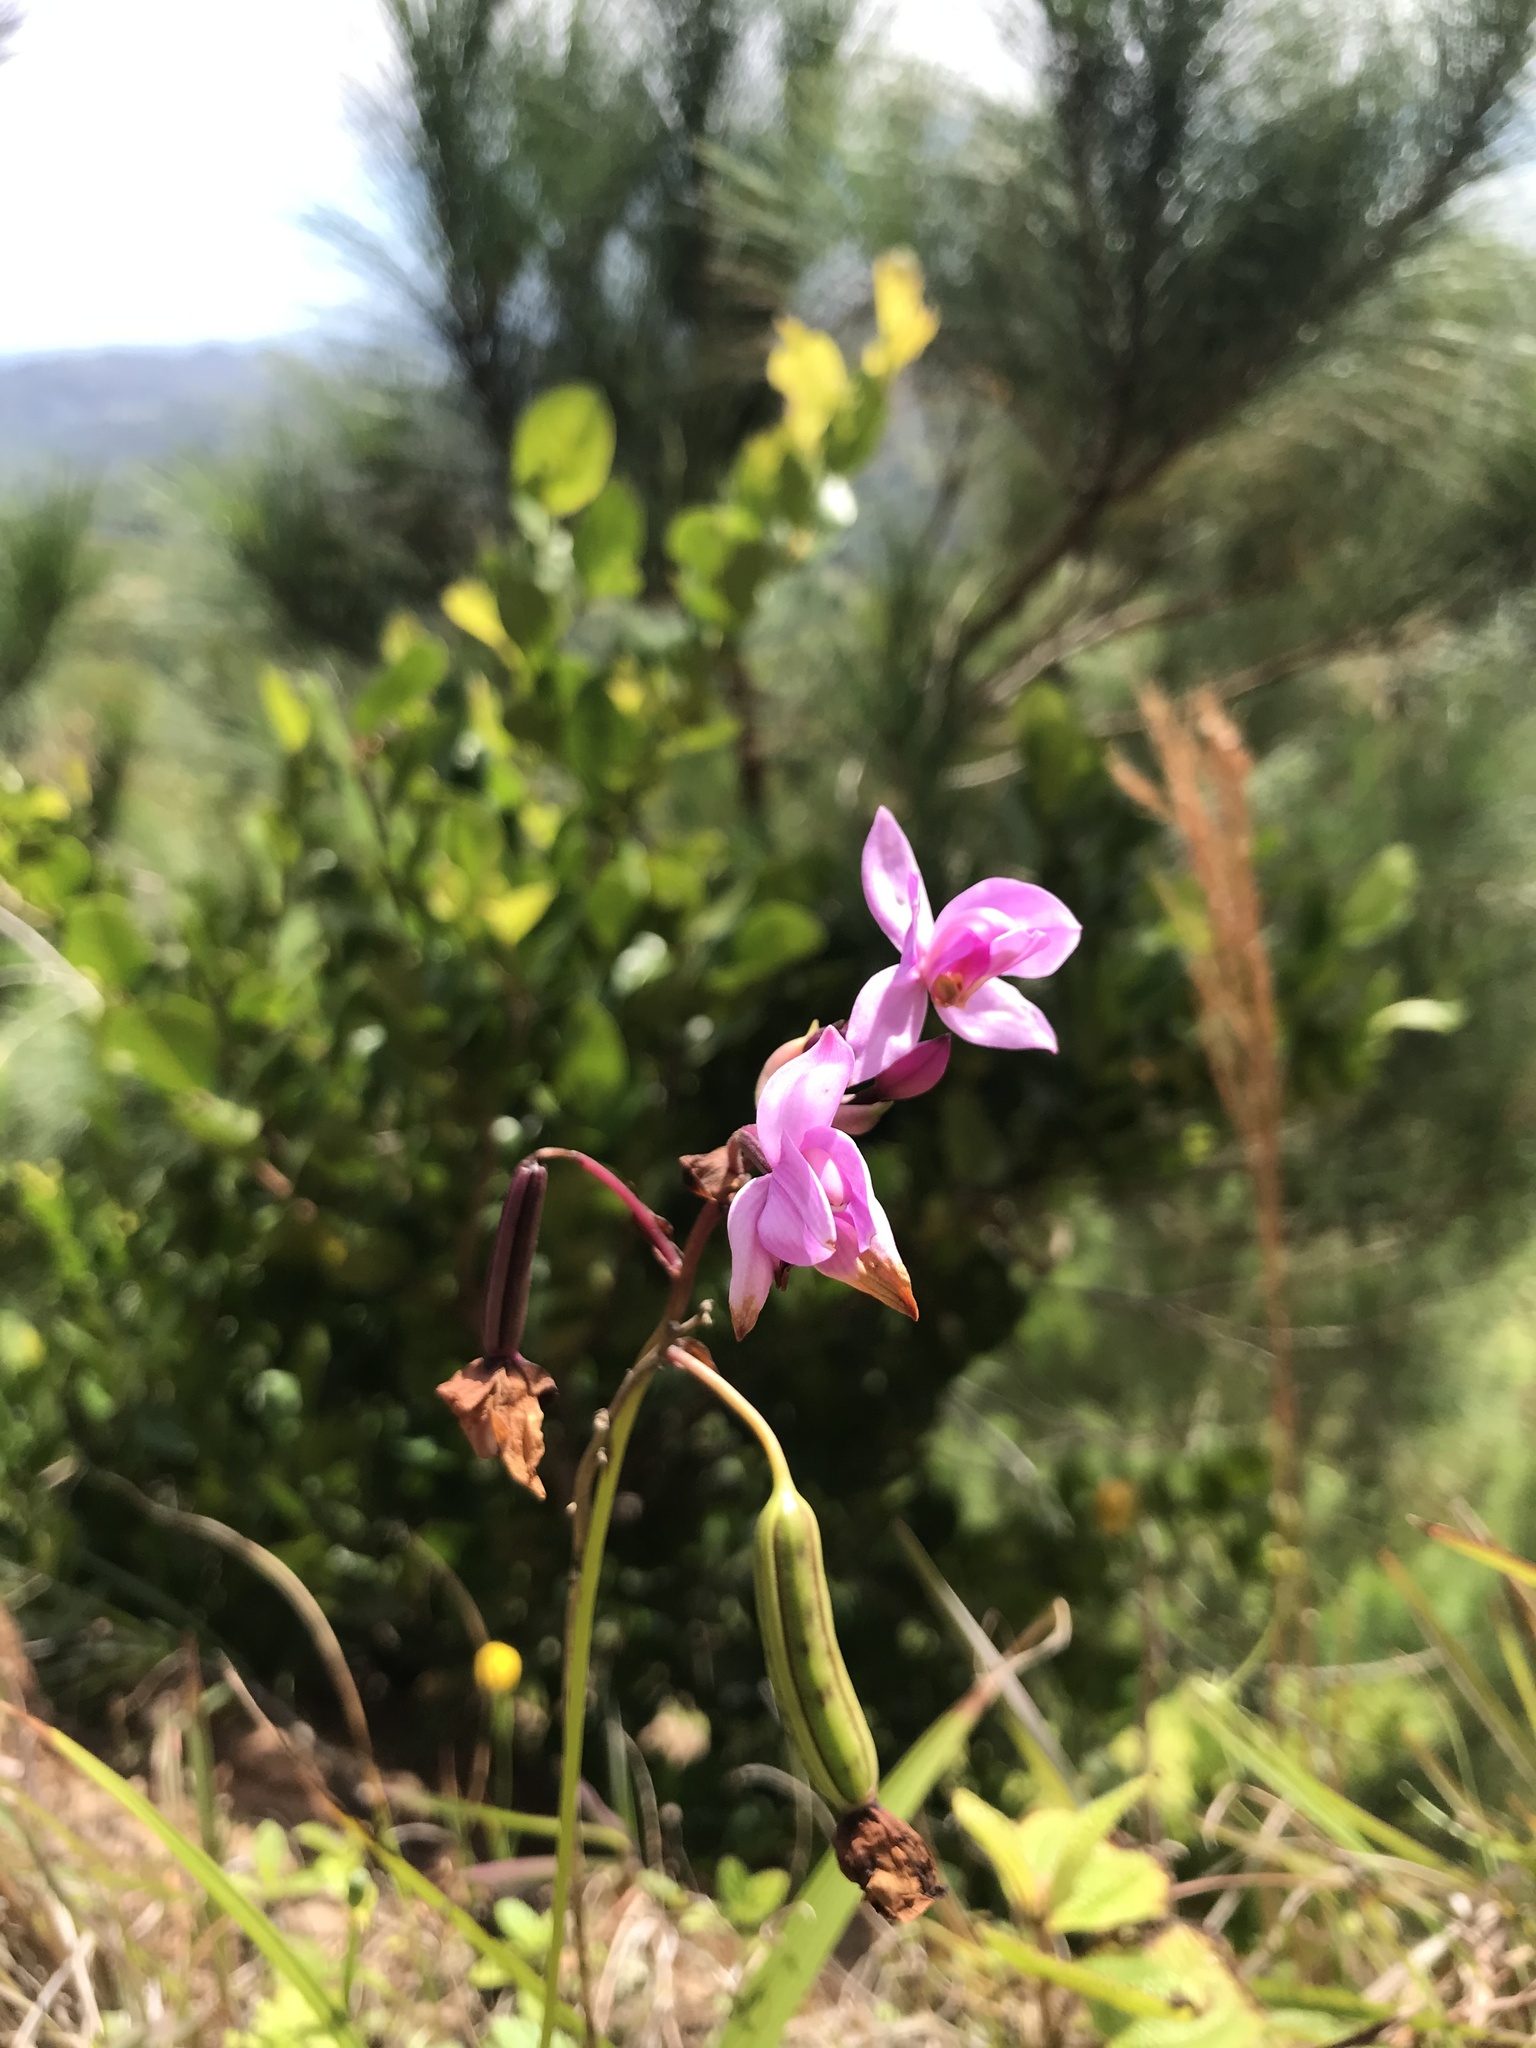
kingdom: Plantae
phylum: Tracheophyta
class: Liliopsida
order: Asparagales
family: Orchidaceae
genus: Spathoglottis
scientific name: Spathoglottis plicata
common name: Philippine ground orchid
